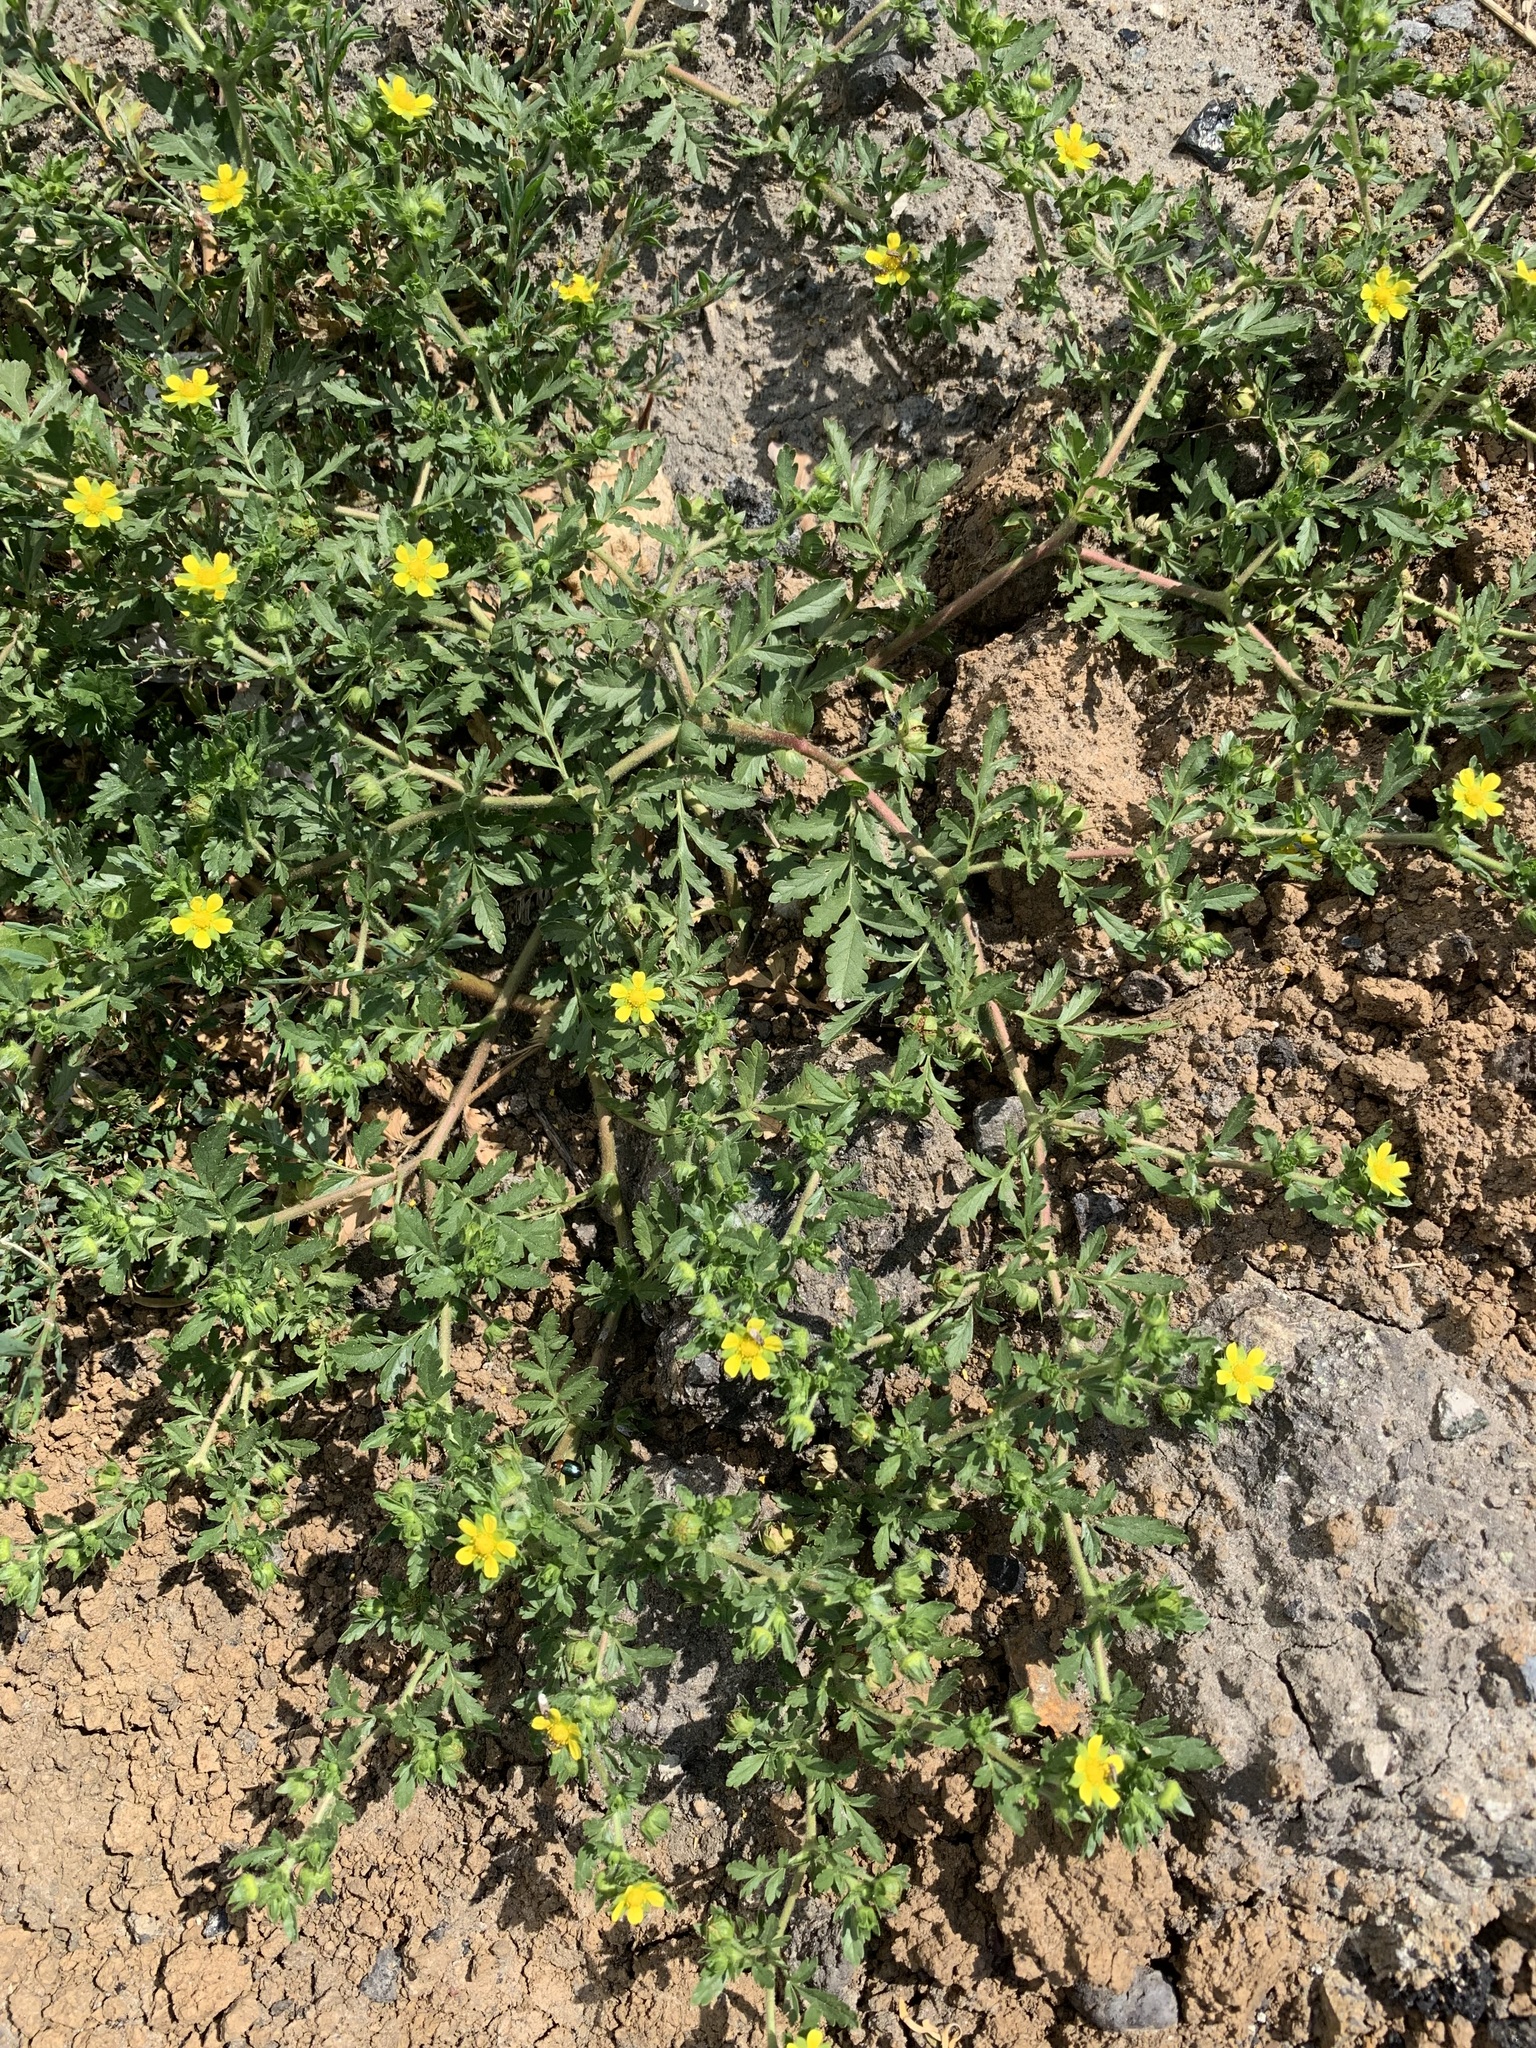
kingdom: Plantae
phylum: Tracheophyta
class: Magnoliopsida
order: Rosales
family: Rosaceae
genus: Potentilla
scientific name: Potentilla supina
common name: Prostrate cinquefoil
